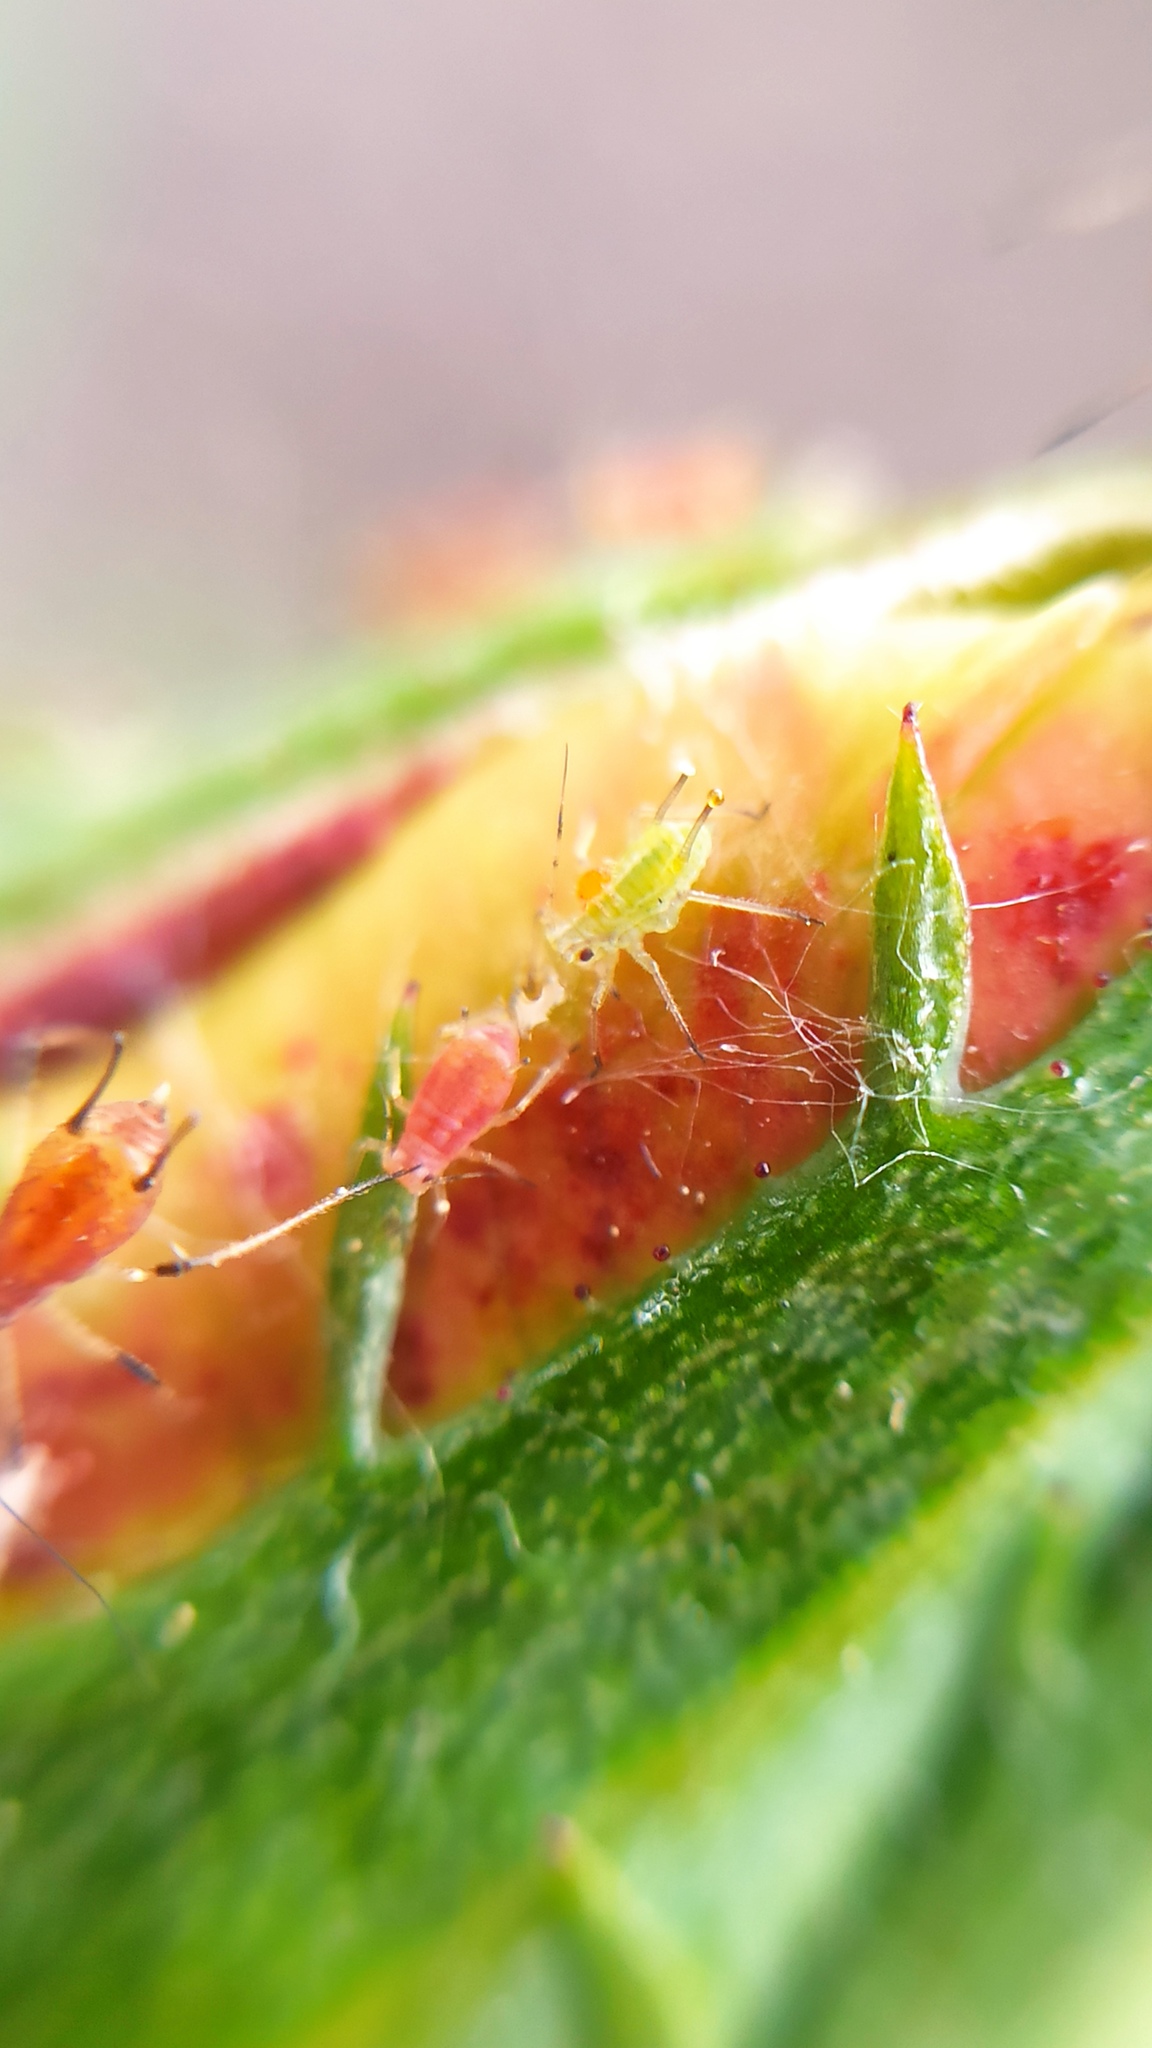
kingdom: Animalia
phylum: Arthropoda
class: Insecta
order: Hemiptera
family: Aphididae
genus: Macrosiphum
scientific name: Macrosiphum rosae
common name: Rose aphid
